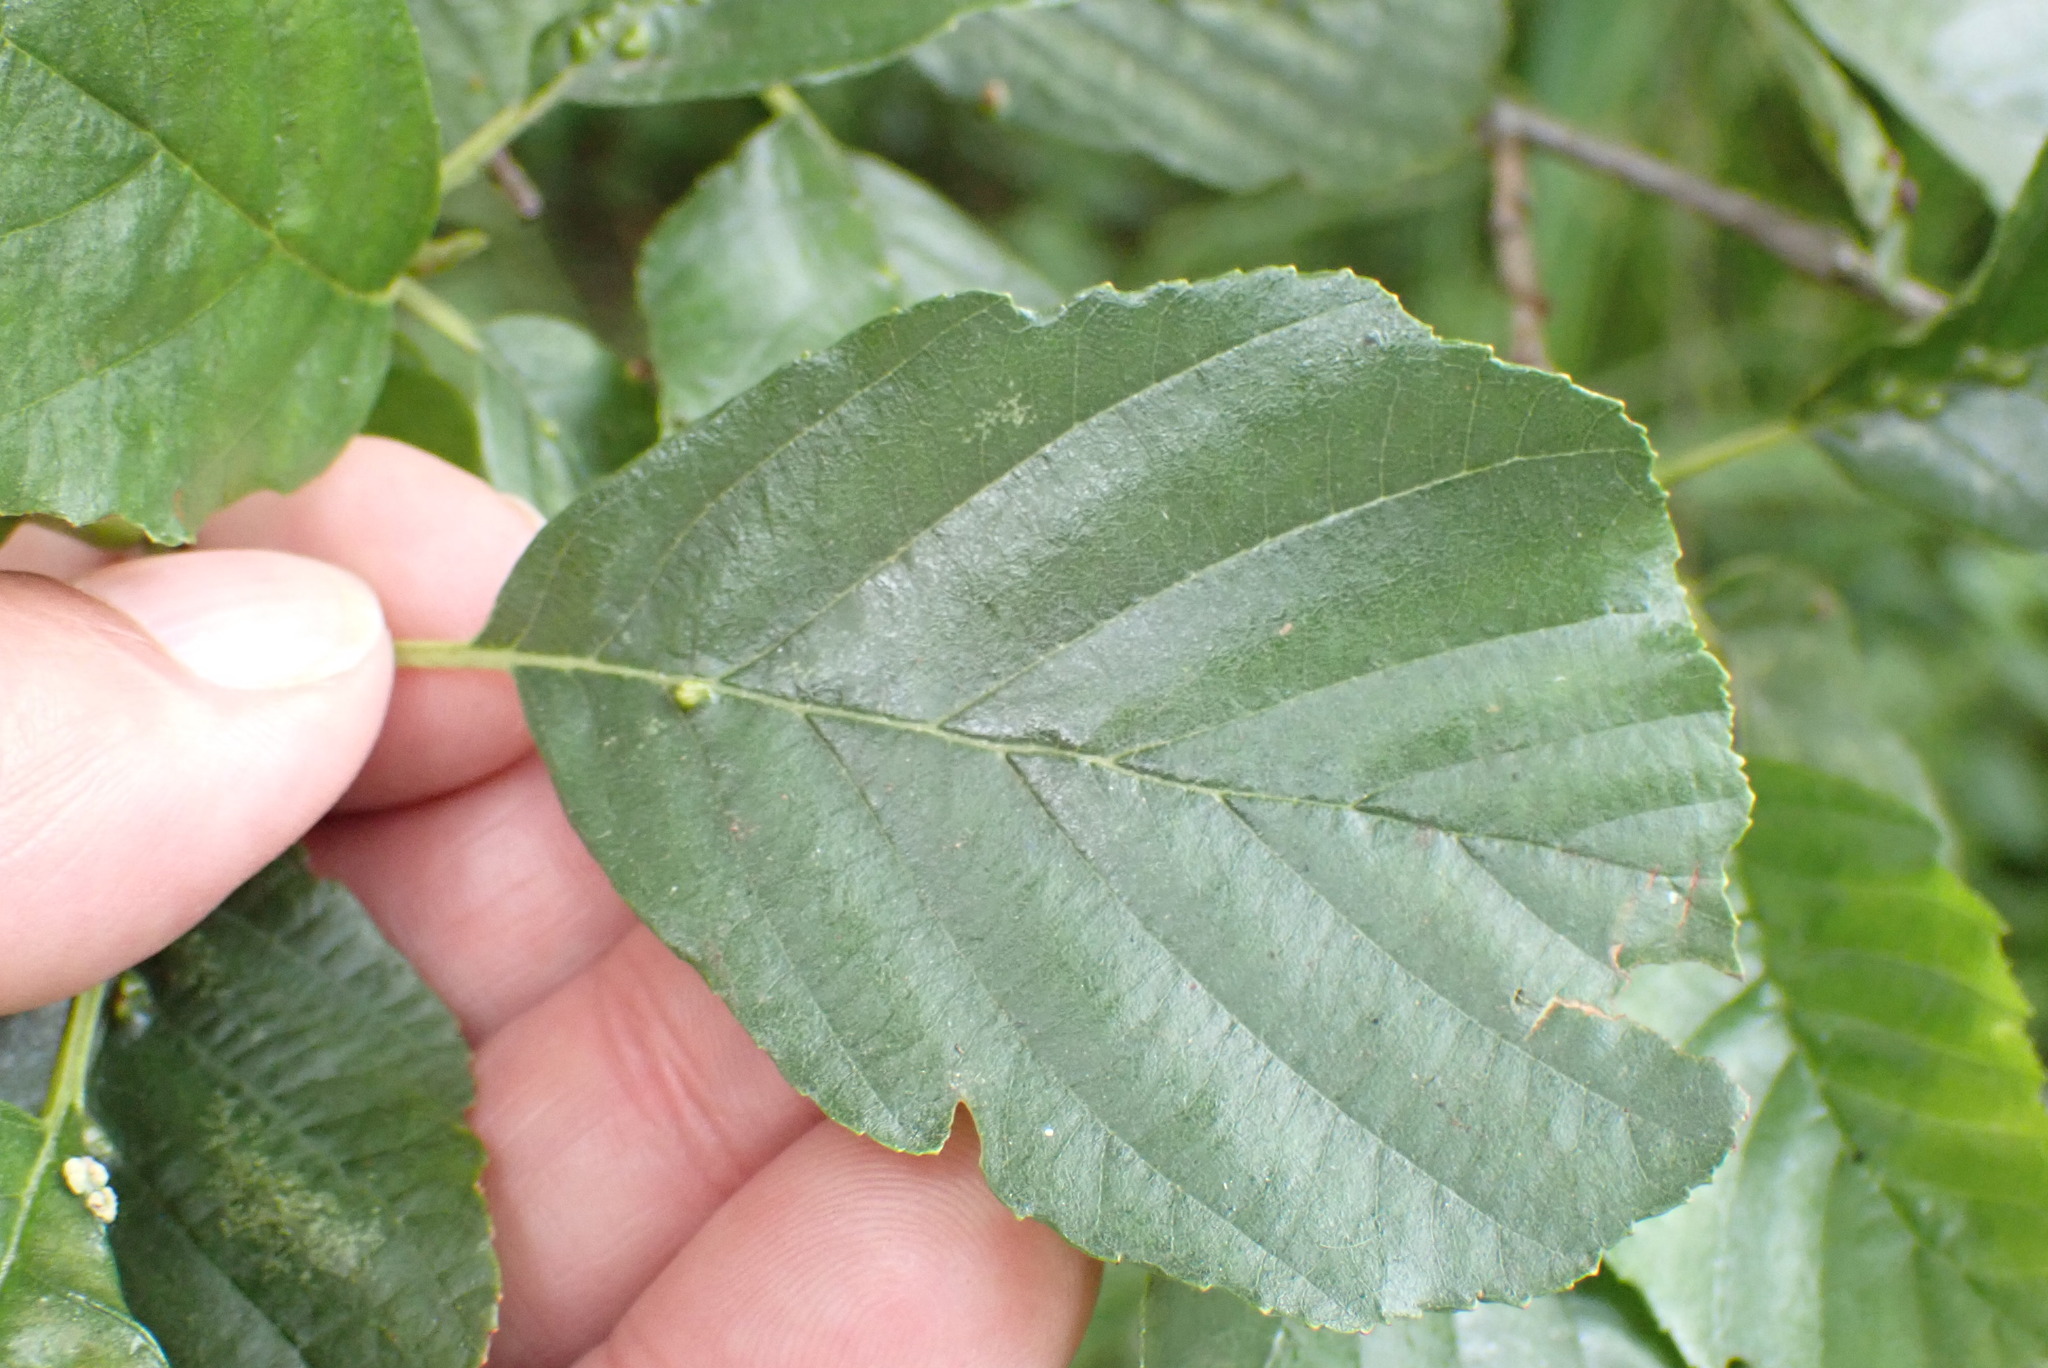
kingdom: Plantae
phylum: Tracheophyta
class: Magnoliopsida
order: Fagales
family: Betulaceae
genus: Alnus
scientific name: Alnus glutinosa
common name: Black alder
